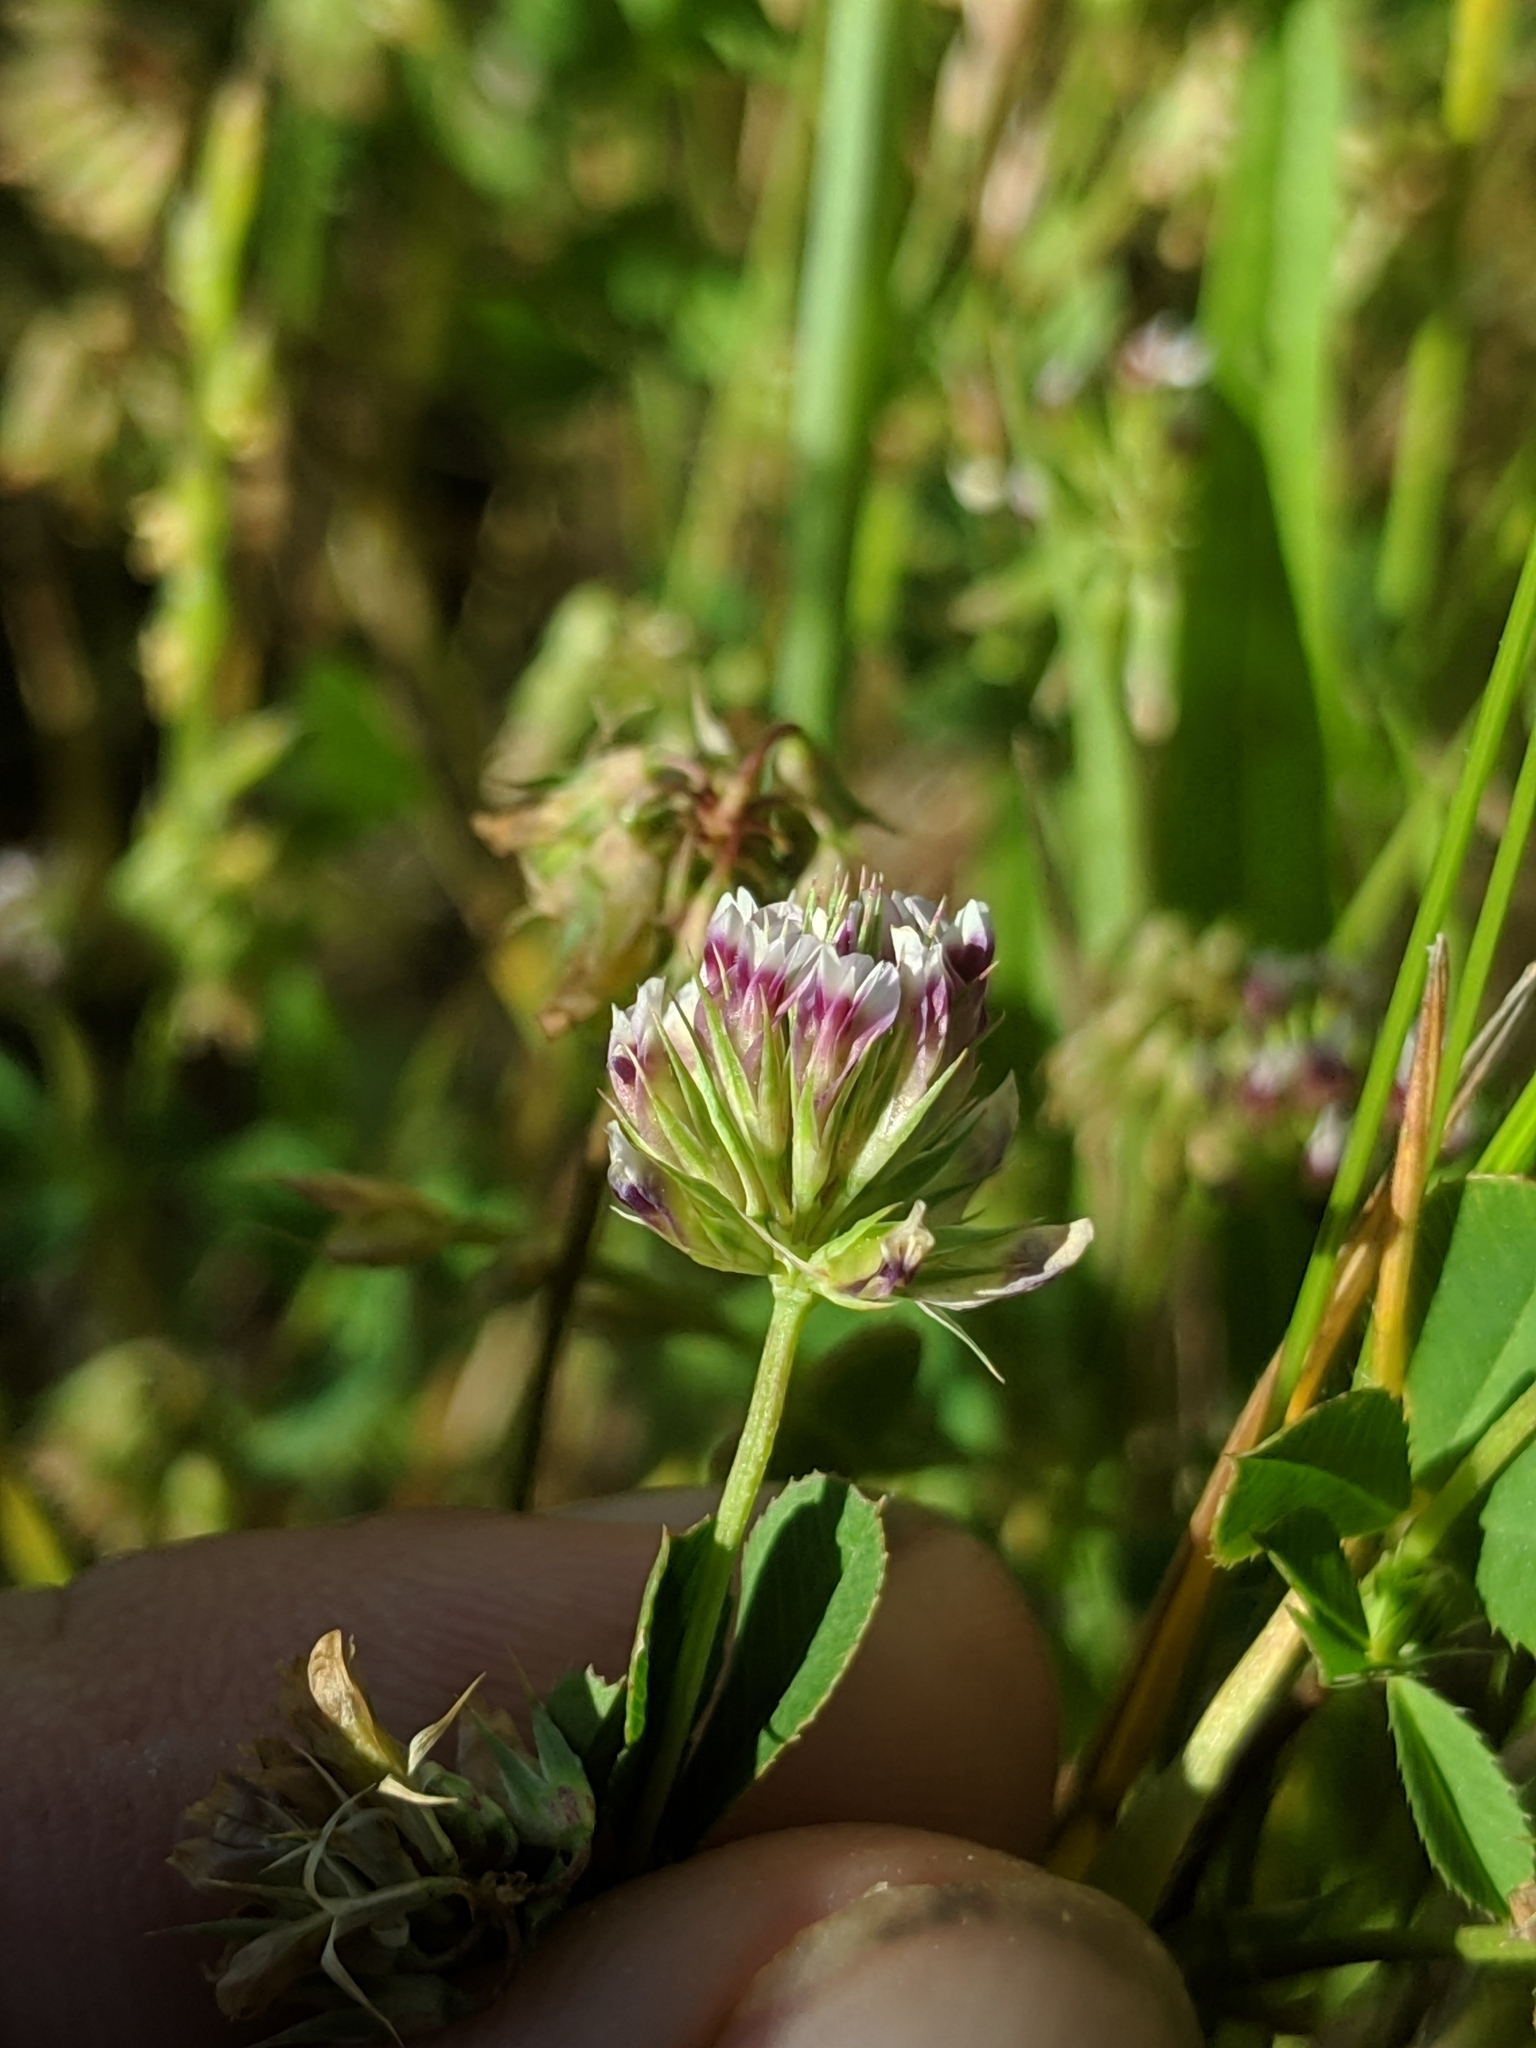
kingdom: Plantae
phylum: Tracheophyta
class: Magnoliopsida
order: Fabales
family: Fabaceae
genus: Trifolium
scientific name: Trifolium gracilentum
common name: Slender clover
